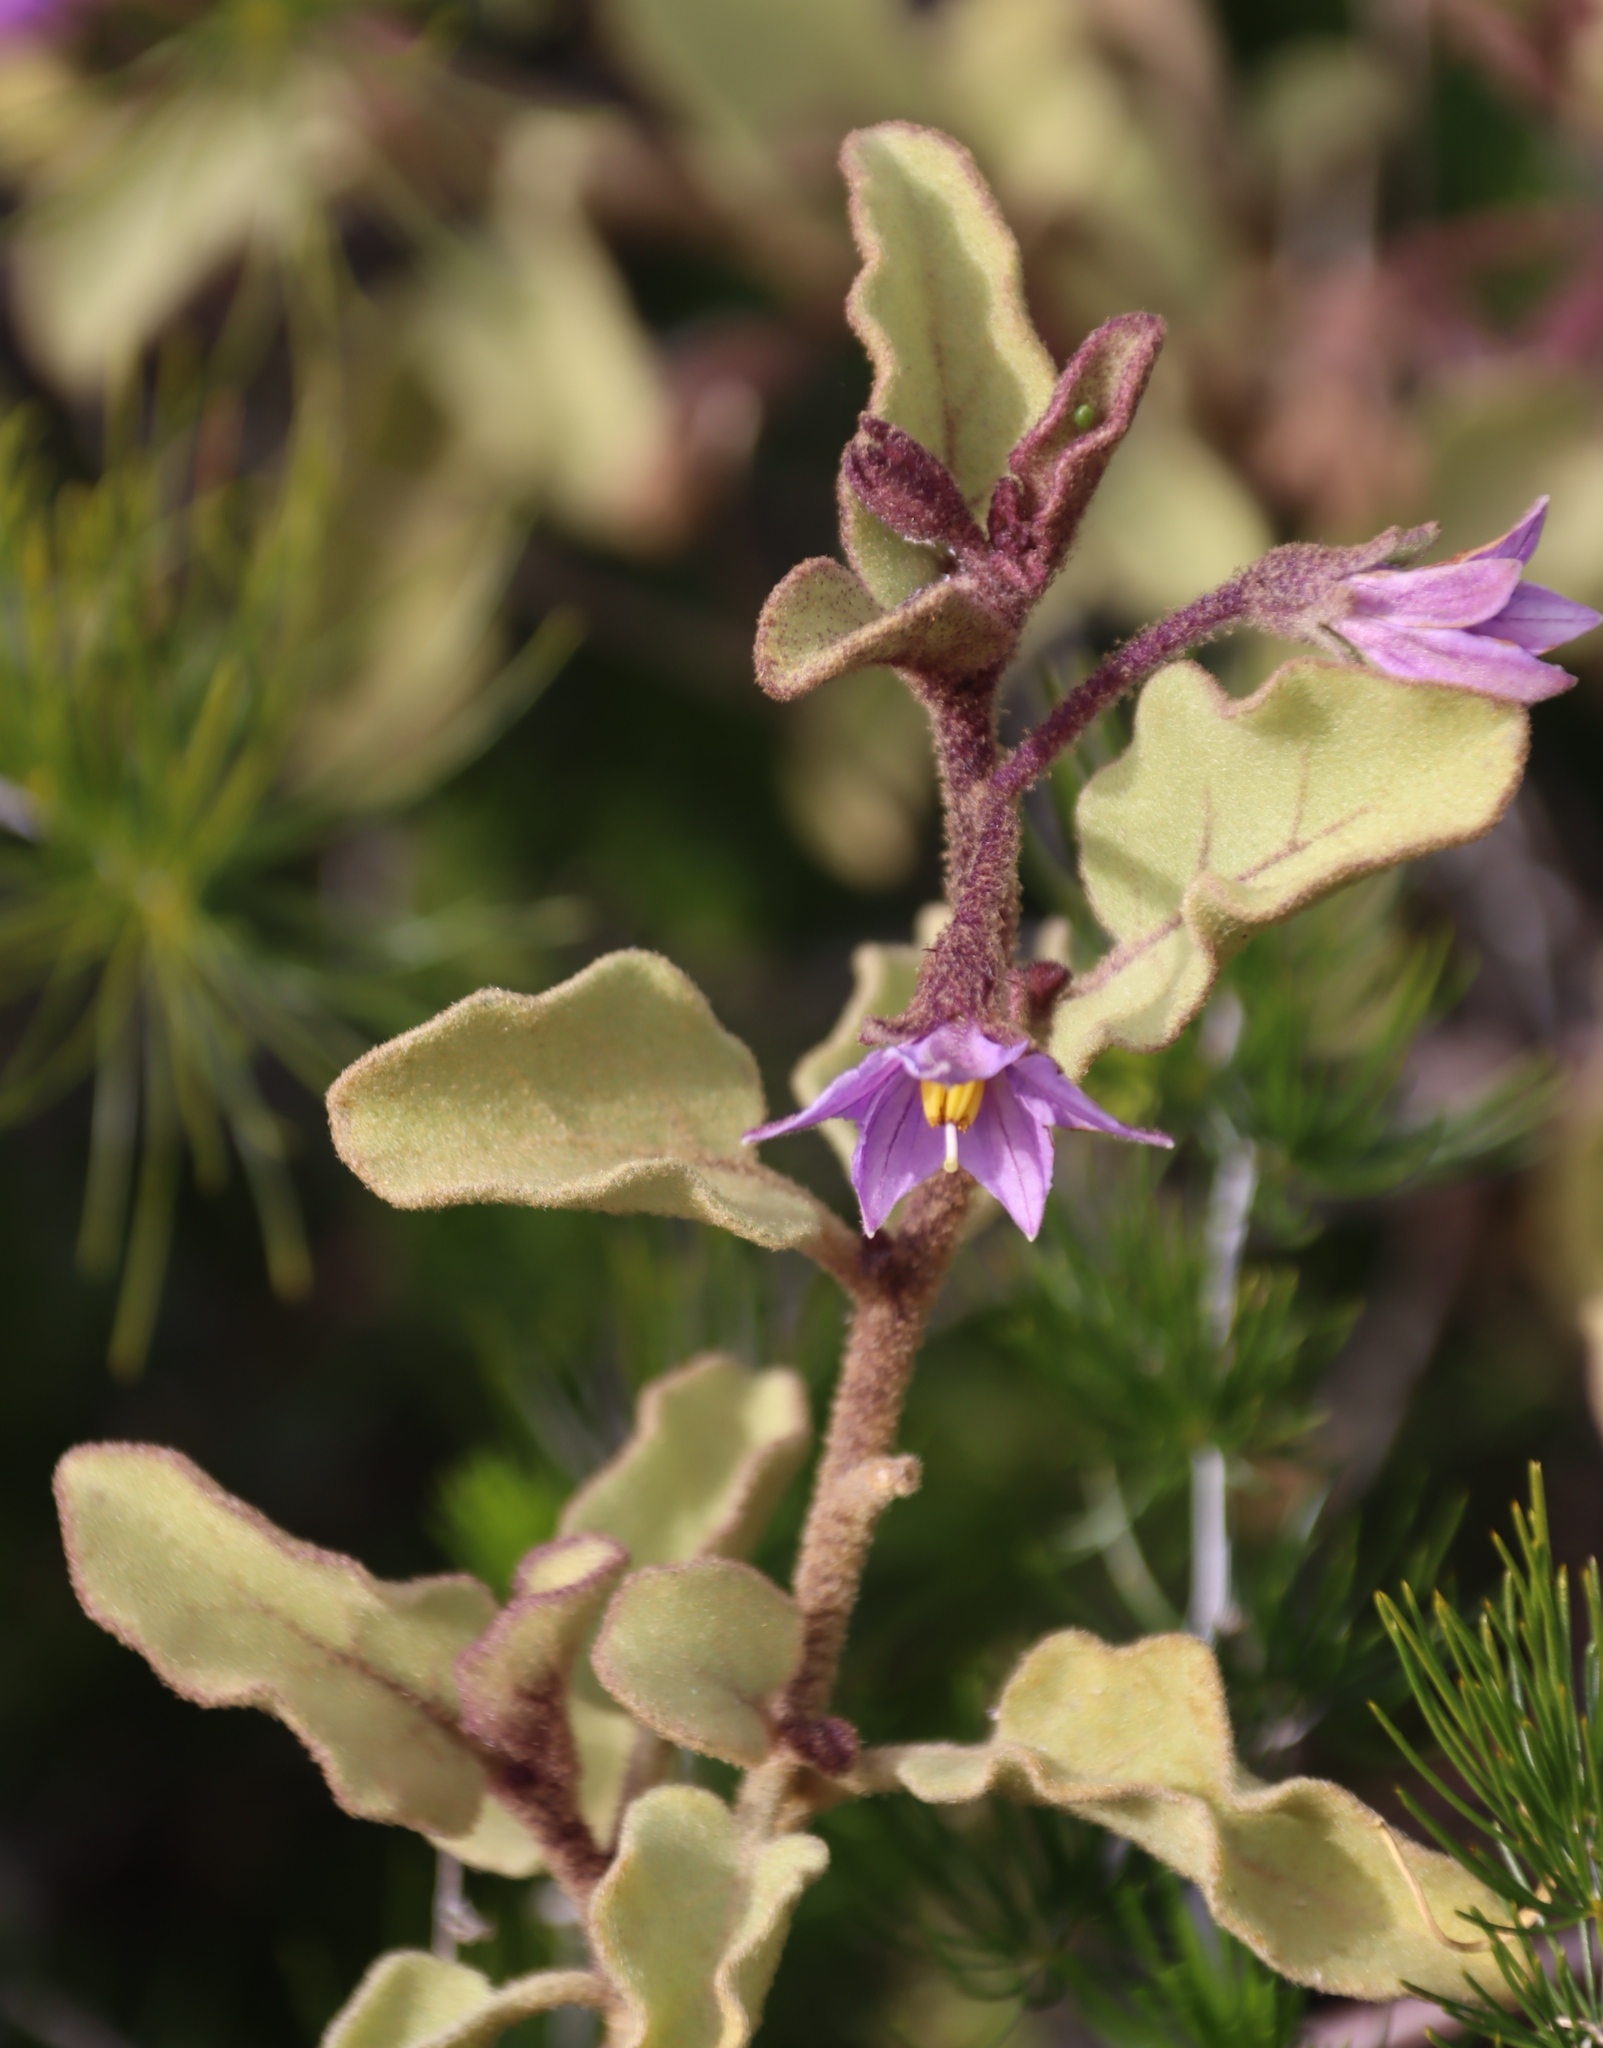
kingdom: Plantae
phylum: Tracheophyta
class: Magnoliopsida
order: Solanales
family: Solanaceae
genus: Solanum
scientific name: Solanum tomentosum
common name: Wild aubergine
